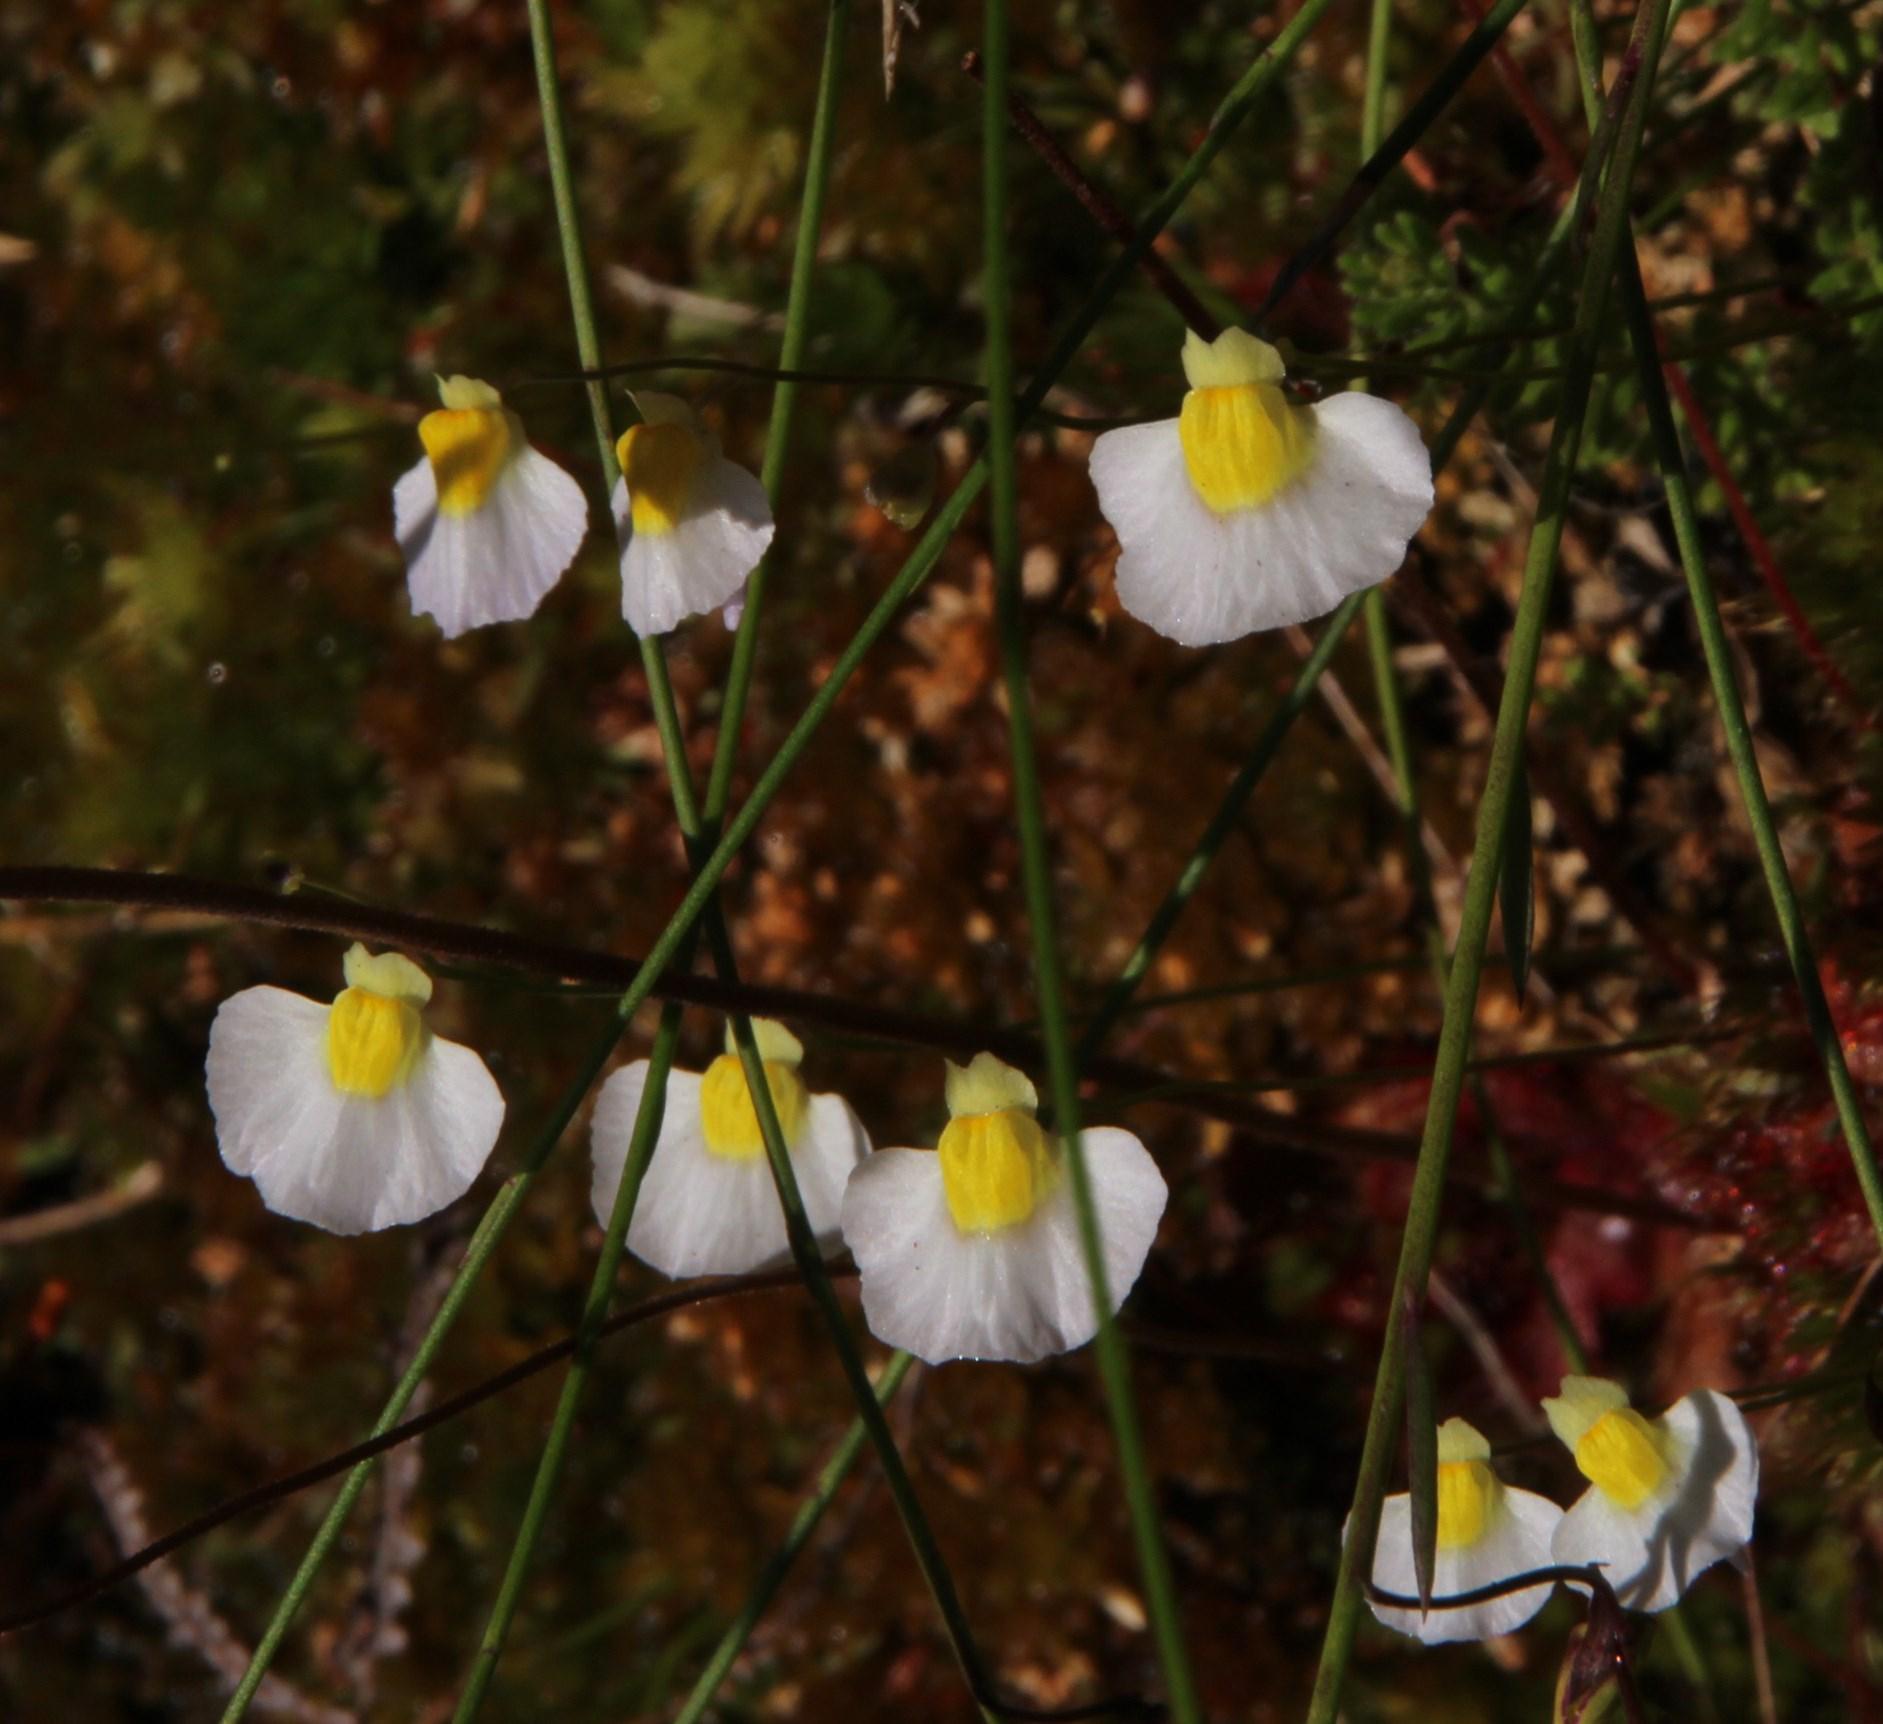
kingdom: Plantae
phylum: Tracheophyta
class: Magnoliopsida
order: Lamiales
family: Lentibulariaceae
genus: Utricularia
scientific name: Utricularia bisquamata
